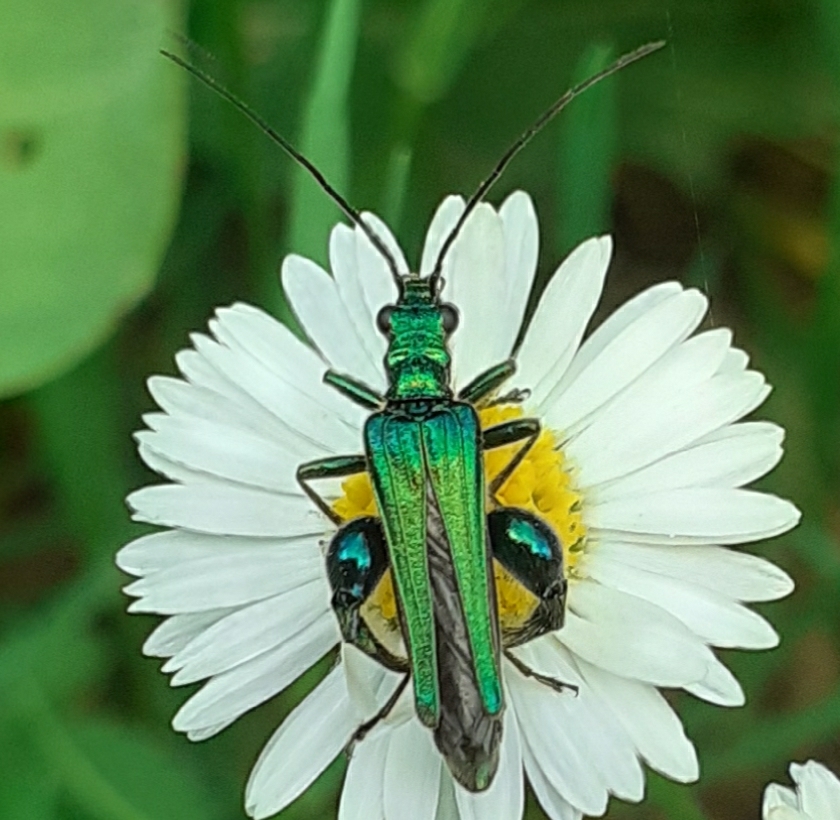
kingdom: Animalia
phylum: Arthropoda
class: Insecta
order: Coleoptera
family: Oedemeridae
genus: Oedemera
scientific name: Oedemera nobilis
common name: Swollen-thighed beetle
